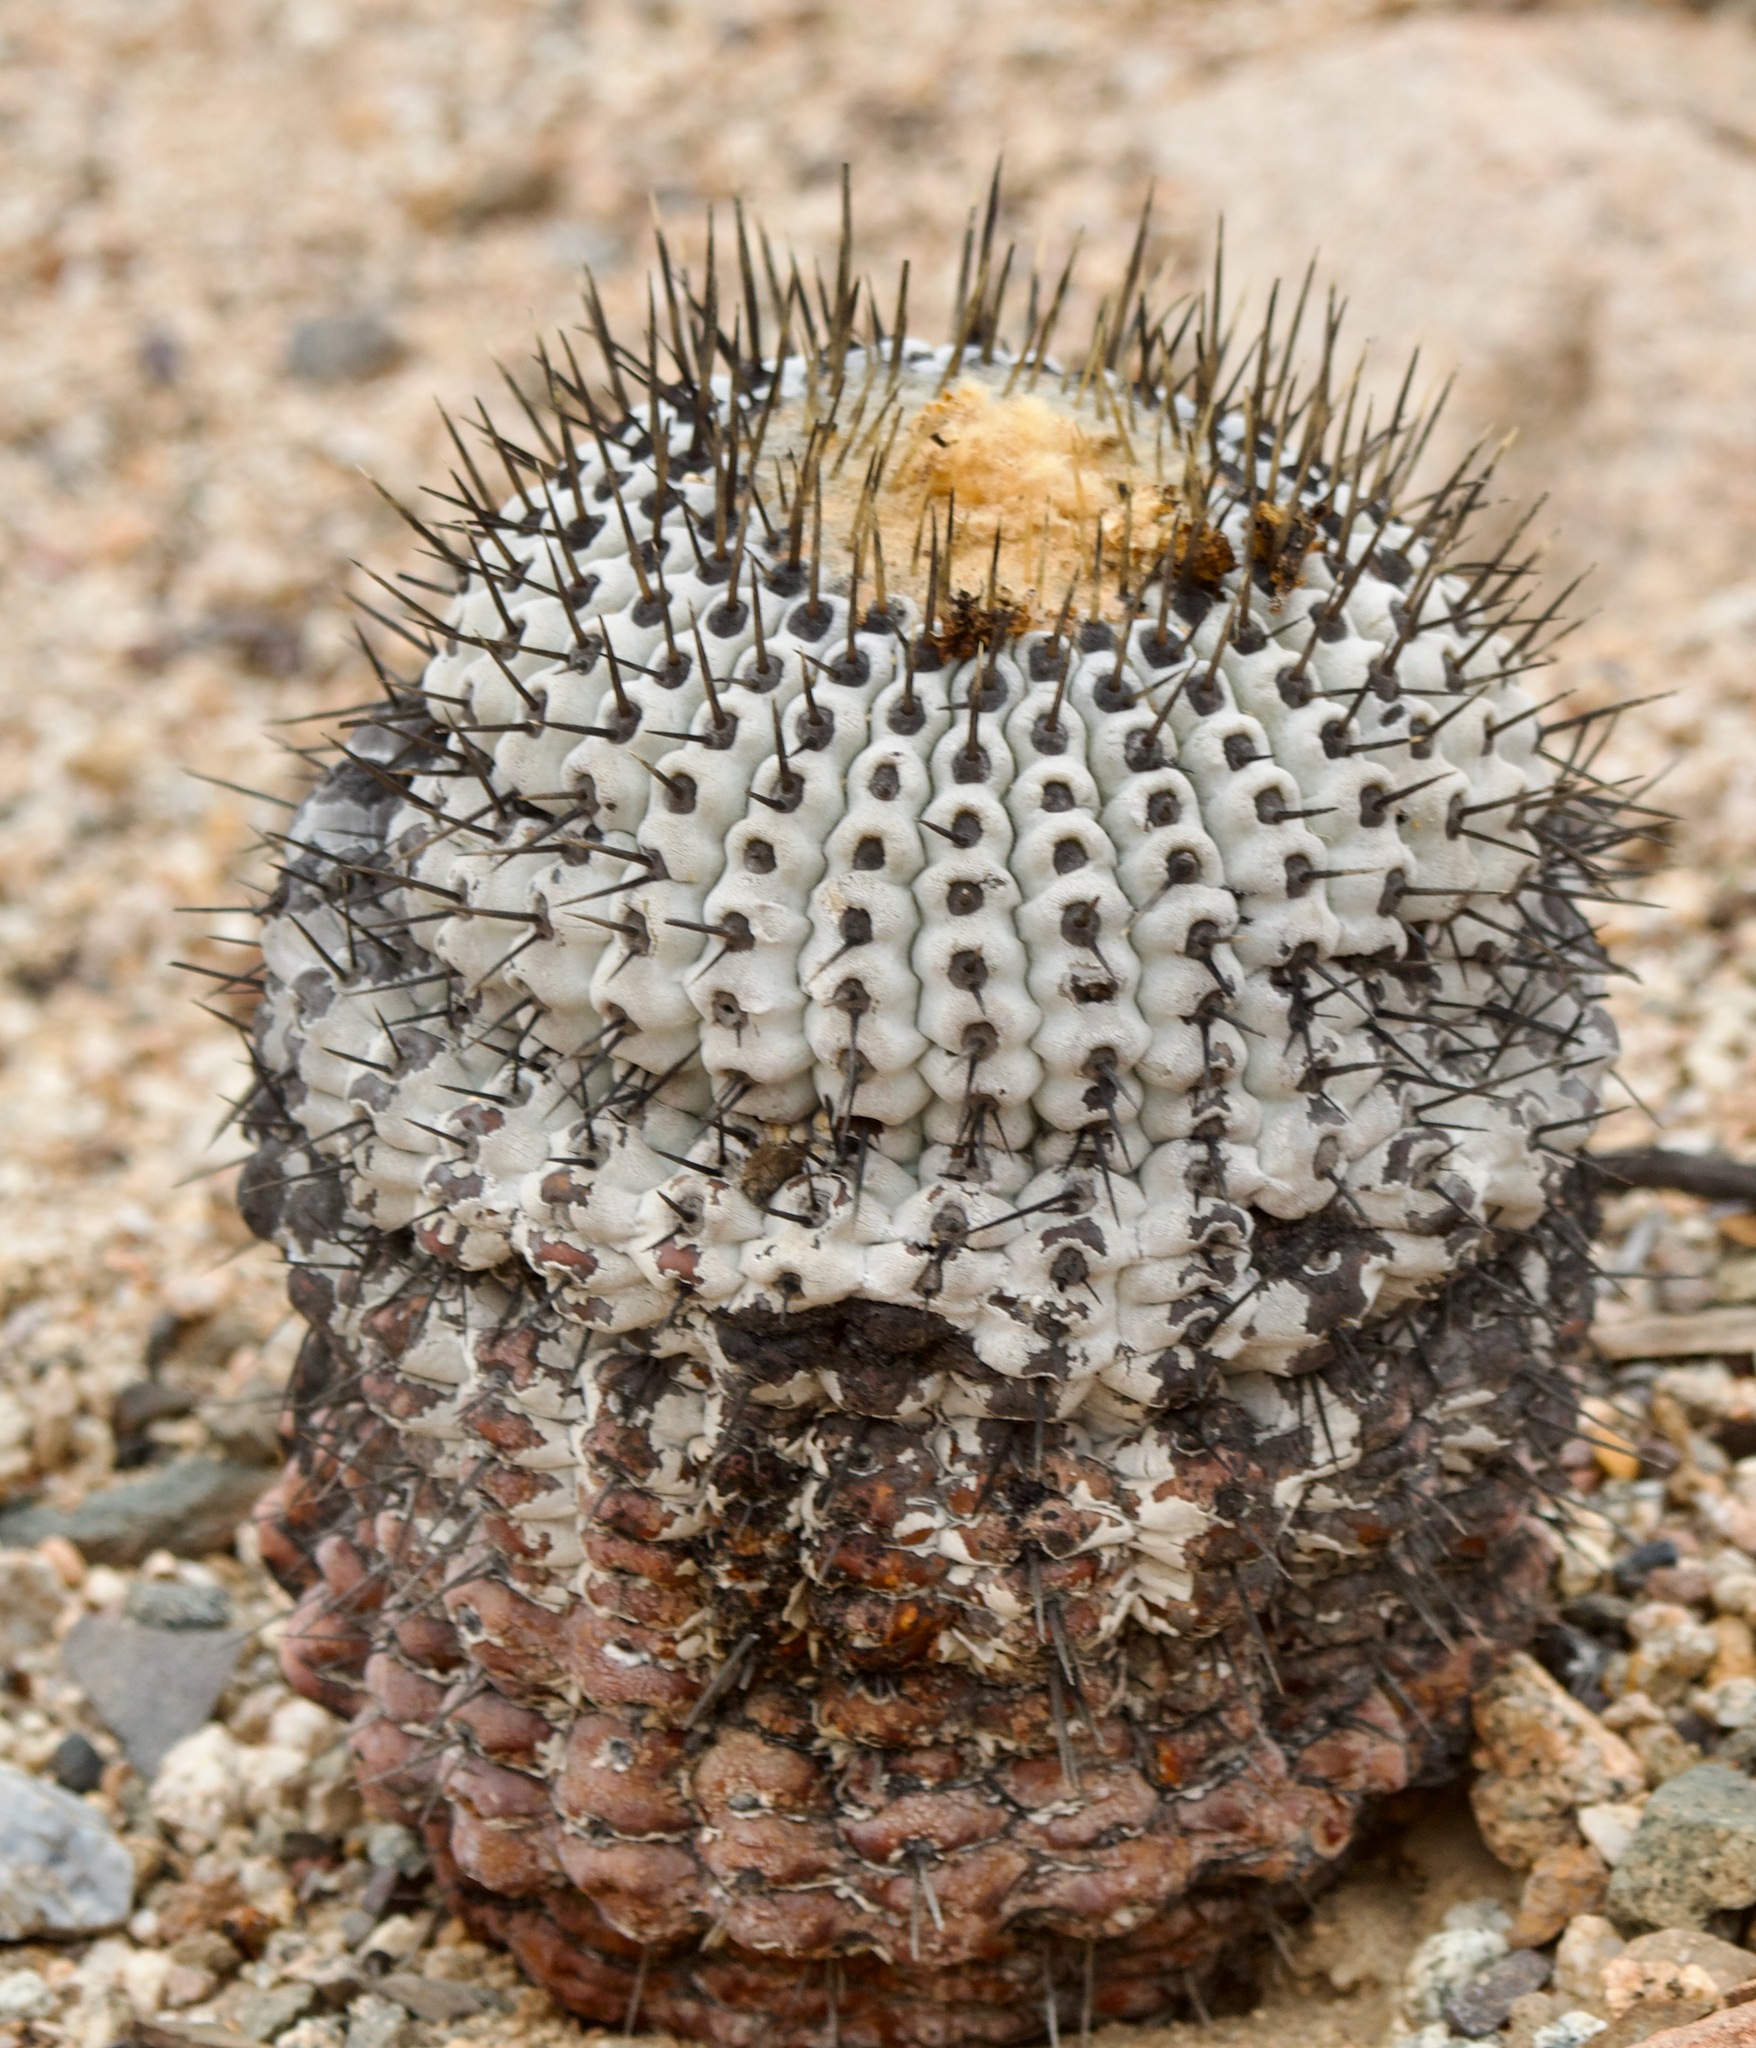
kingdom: Plantae
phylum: Tracheophyta
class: Magnoliopsida
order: Caryophyllales
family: Cactaceae
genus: Copiapoa
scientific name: Copiapoa cinerea
